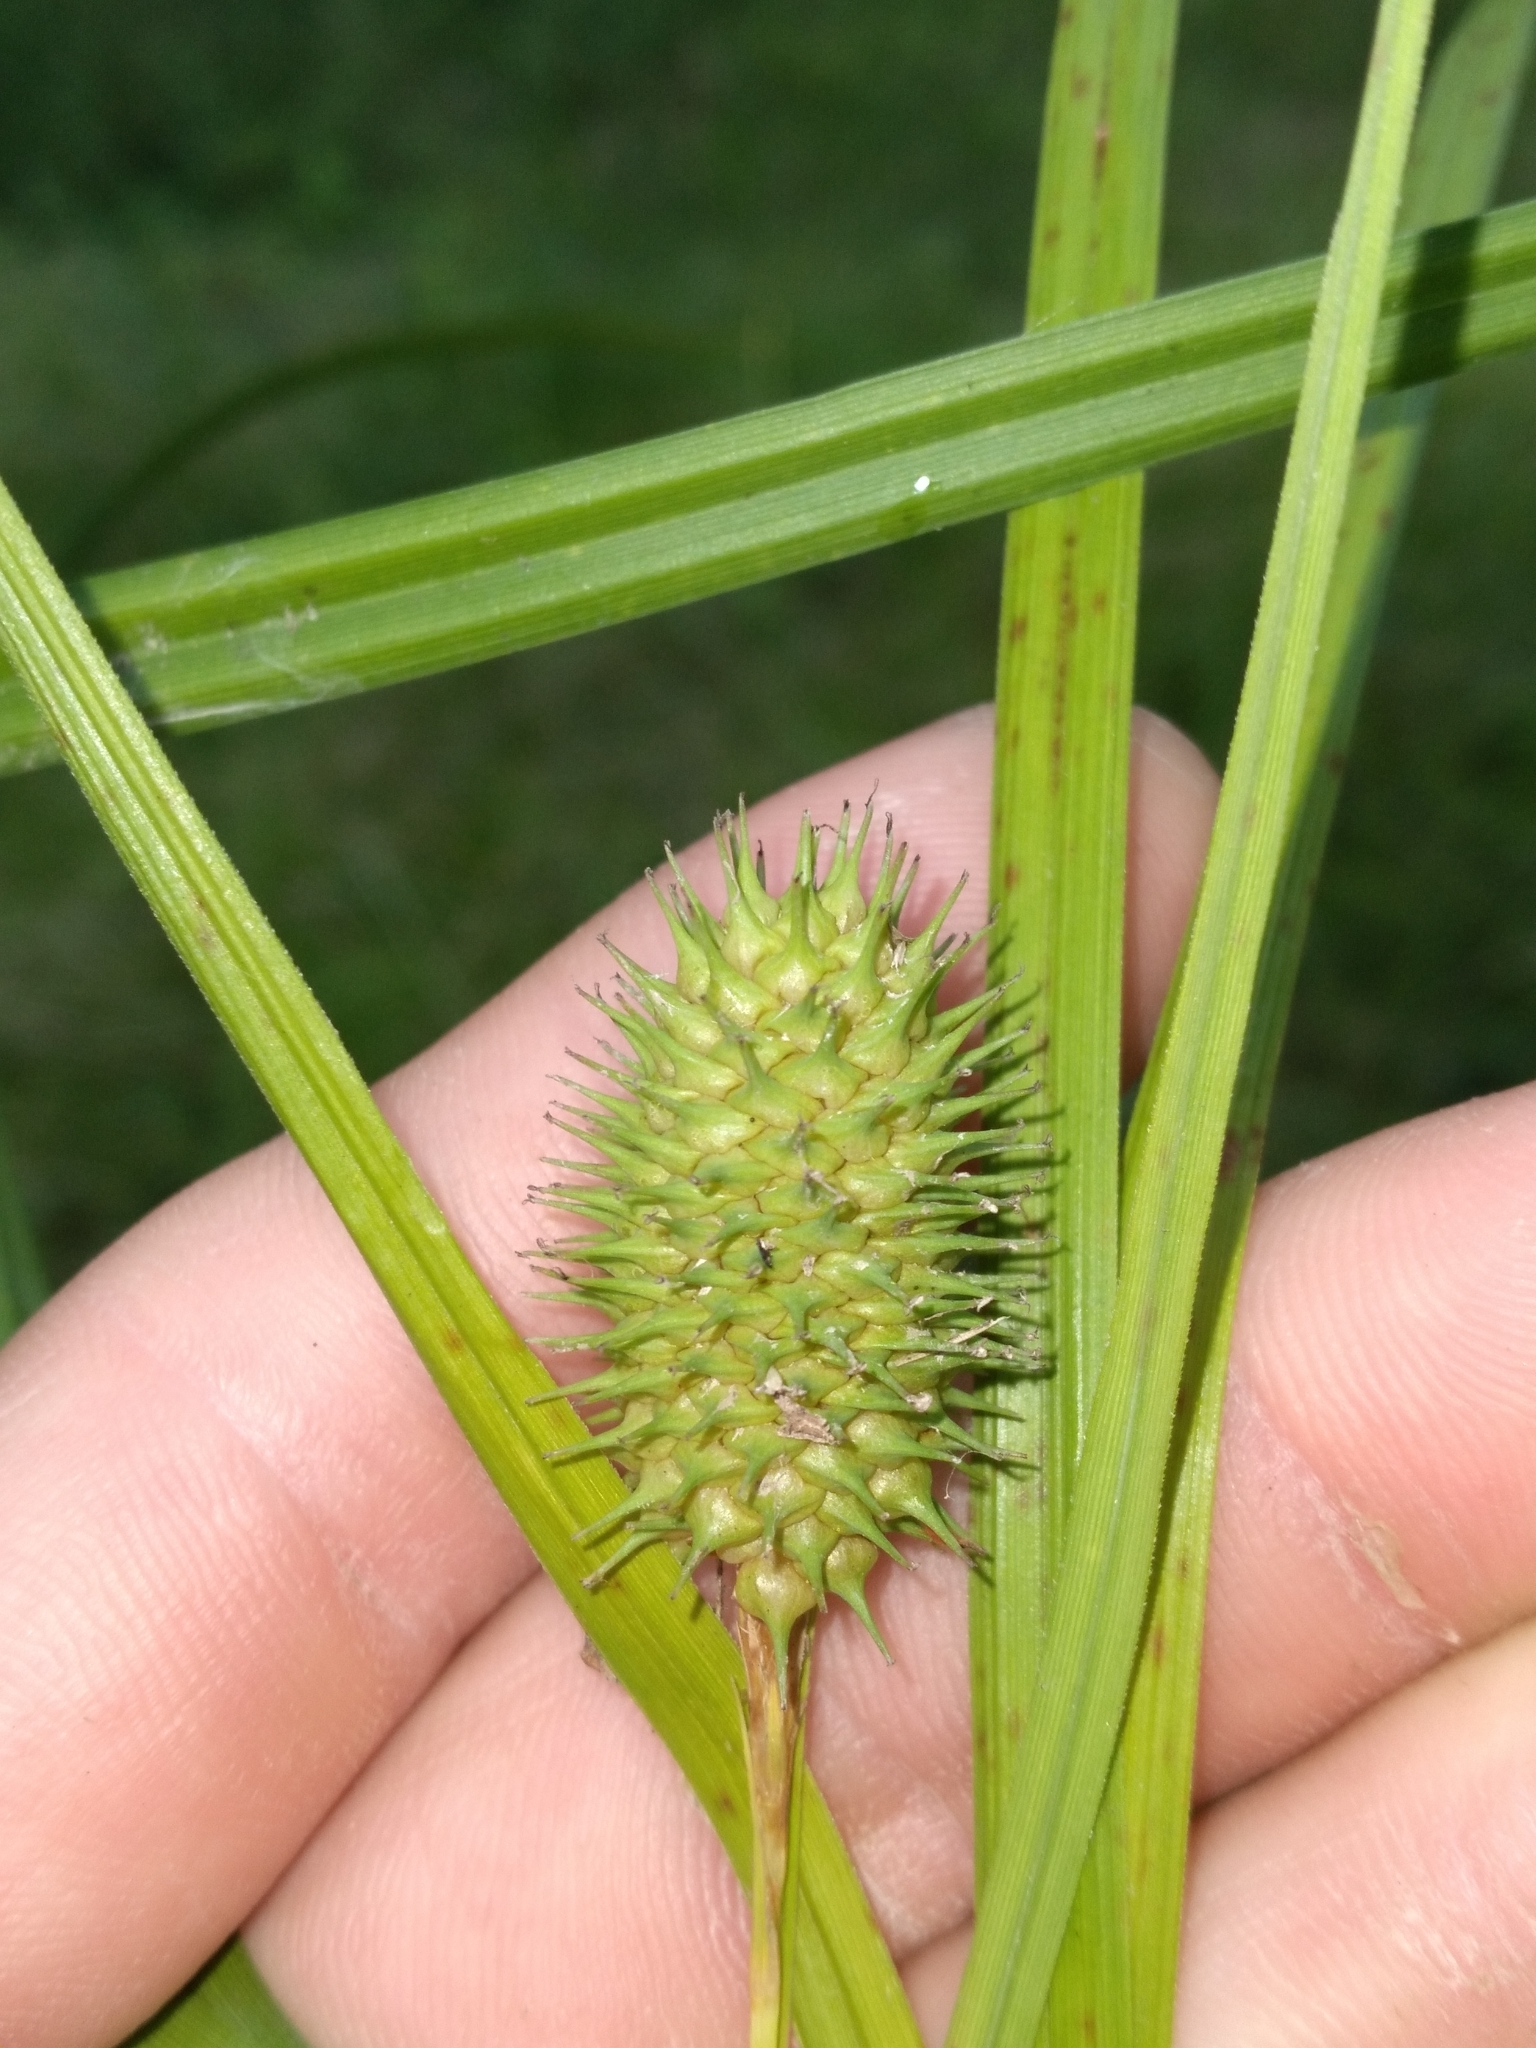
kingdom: Plantae
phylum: Tracheophyta
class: Liliopsida
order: Poales
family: Cyperaceae
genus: Carex
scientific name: Carex squarrosa
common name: Narrow-leaved cattail sedge
